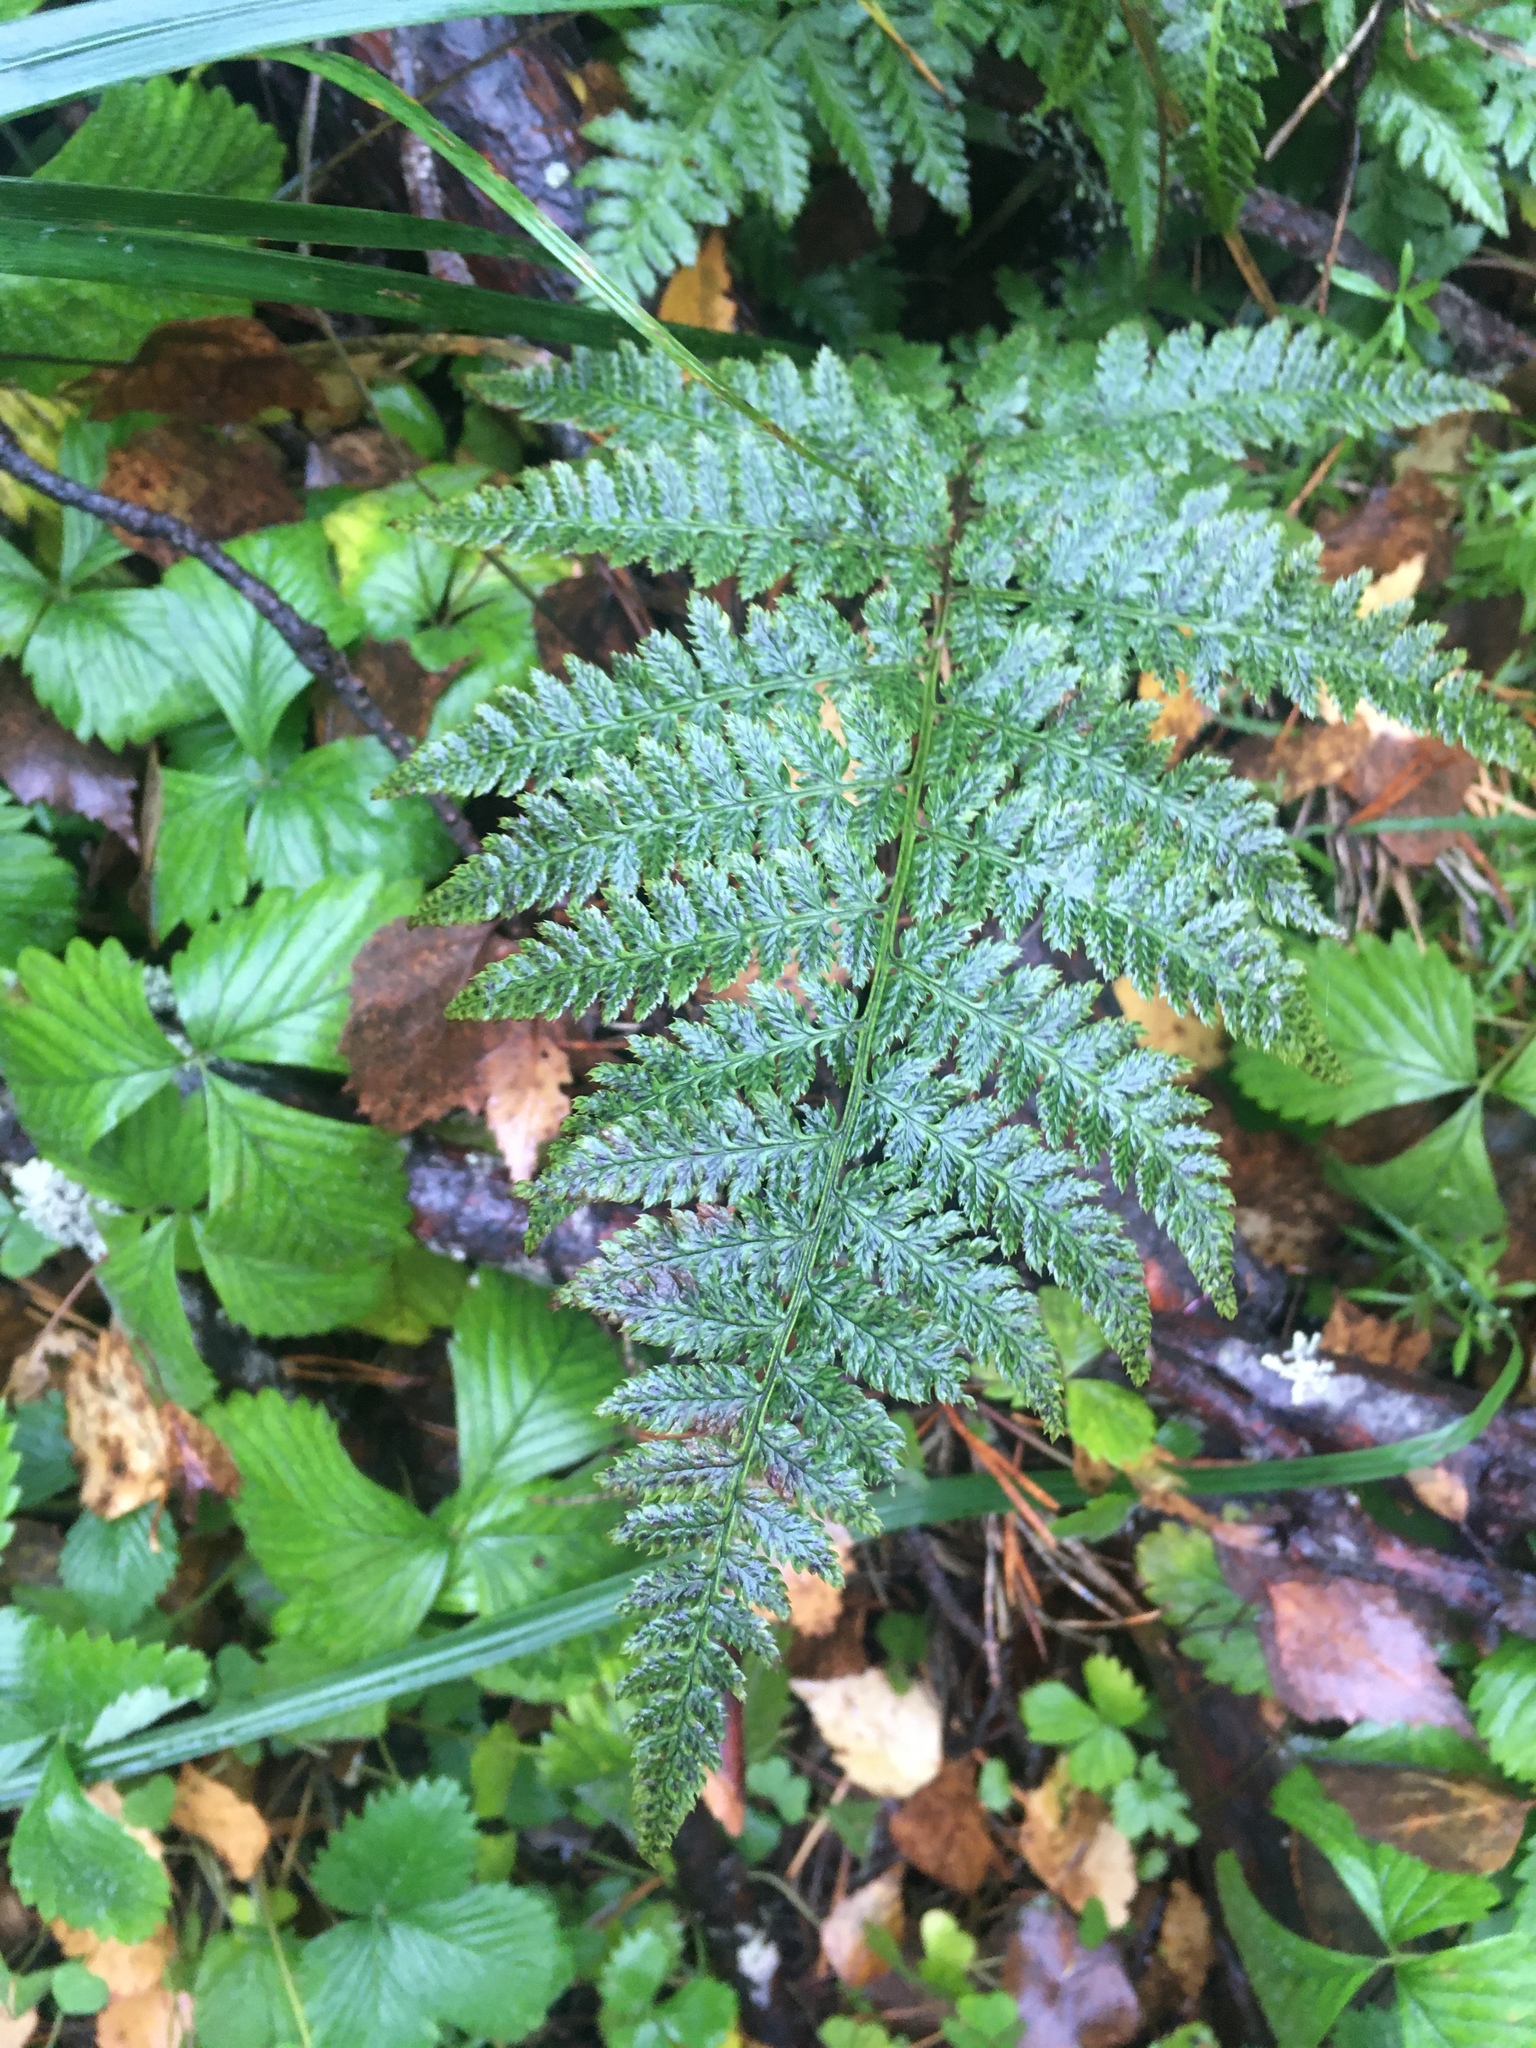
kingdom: Plantae
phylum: Tracheophyta
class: Polypodiopsida
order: Polypodiales
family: Dryopteridaceae
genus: Dryopteris
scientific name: Dryopteris carthusiana
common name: Narrow buckler-fern
